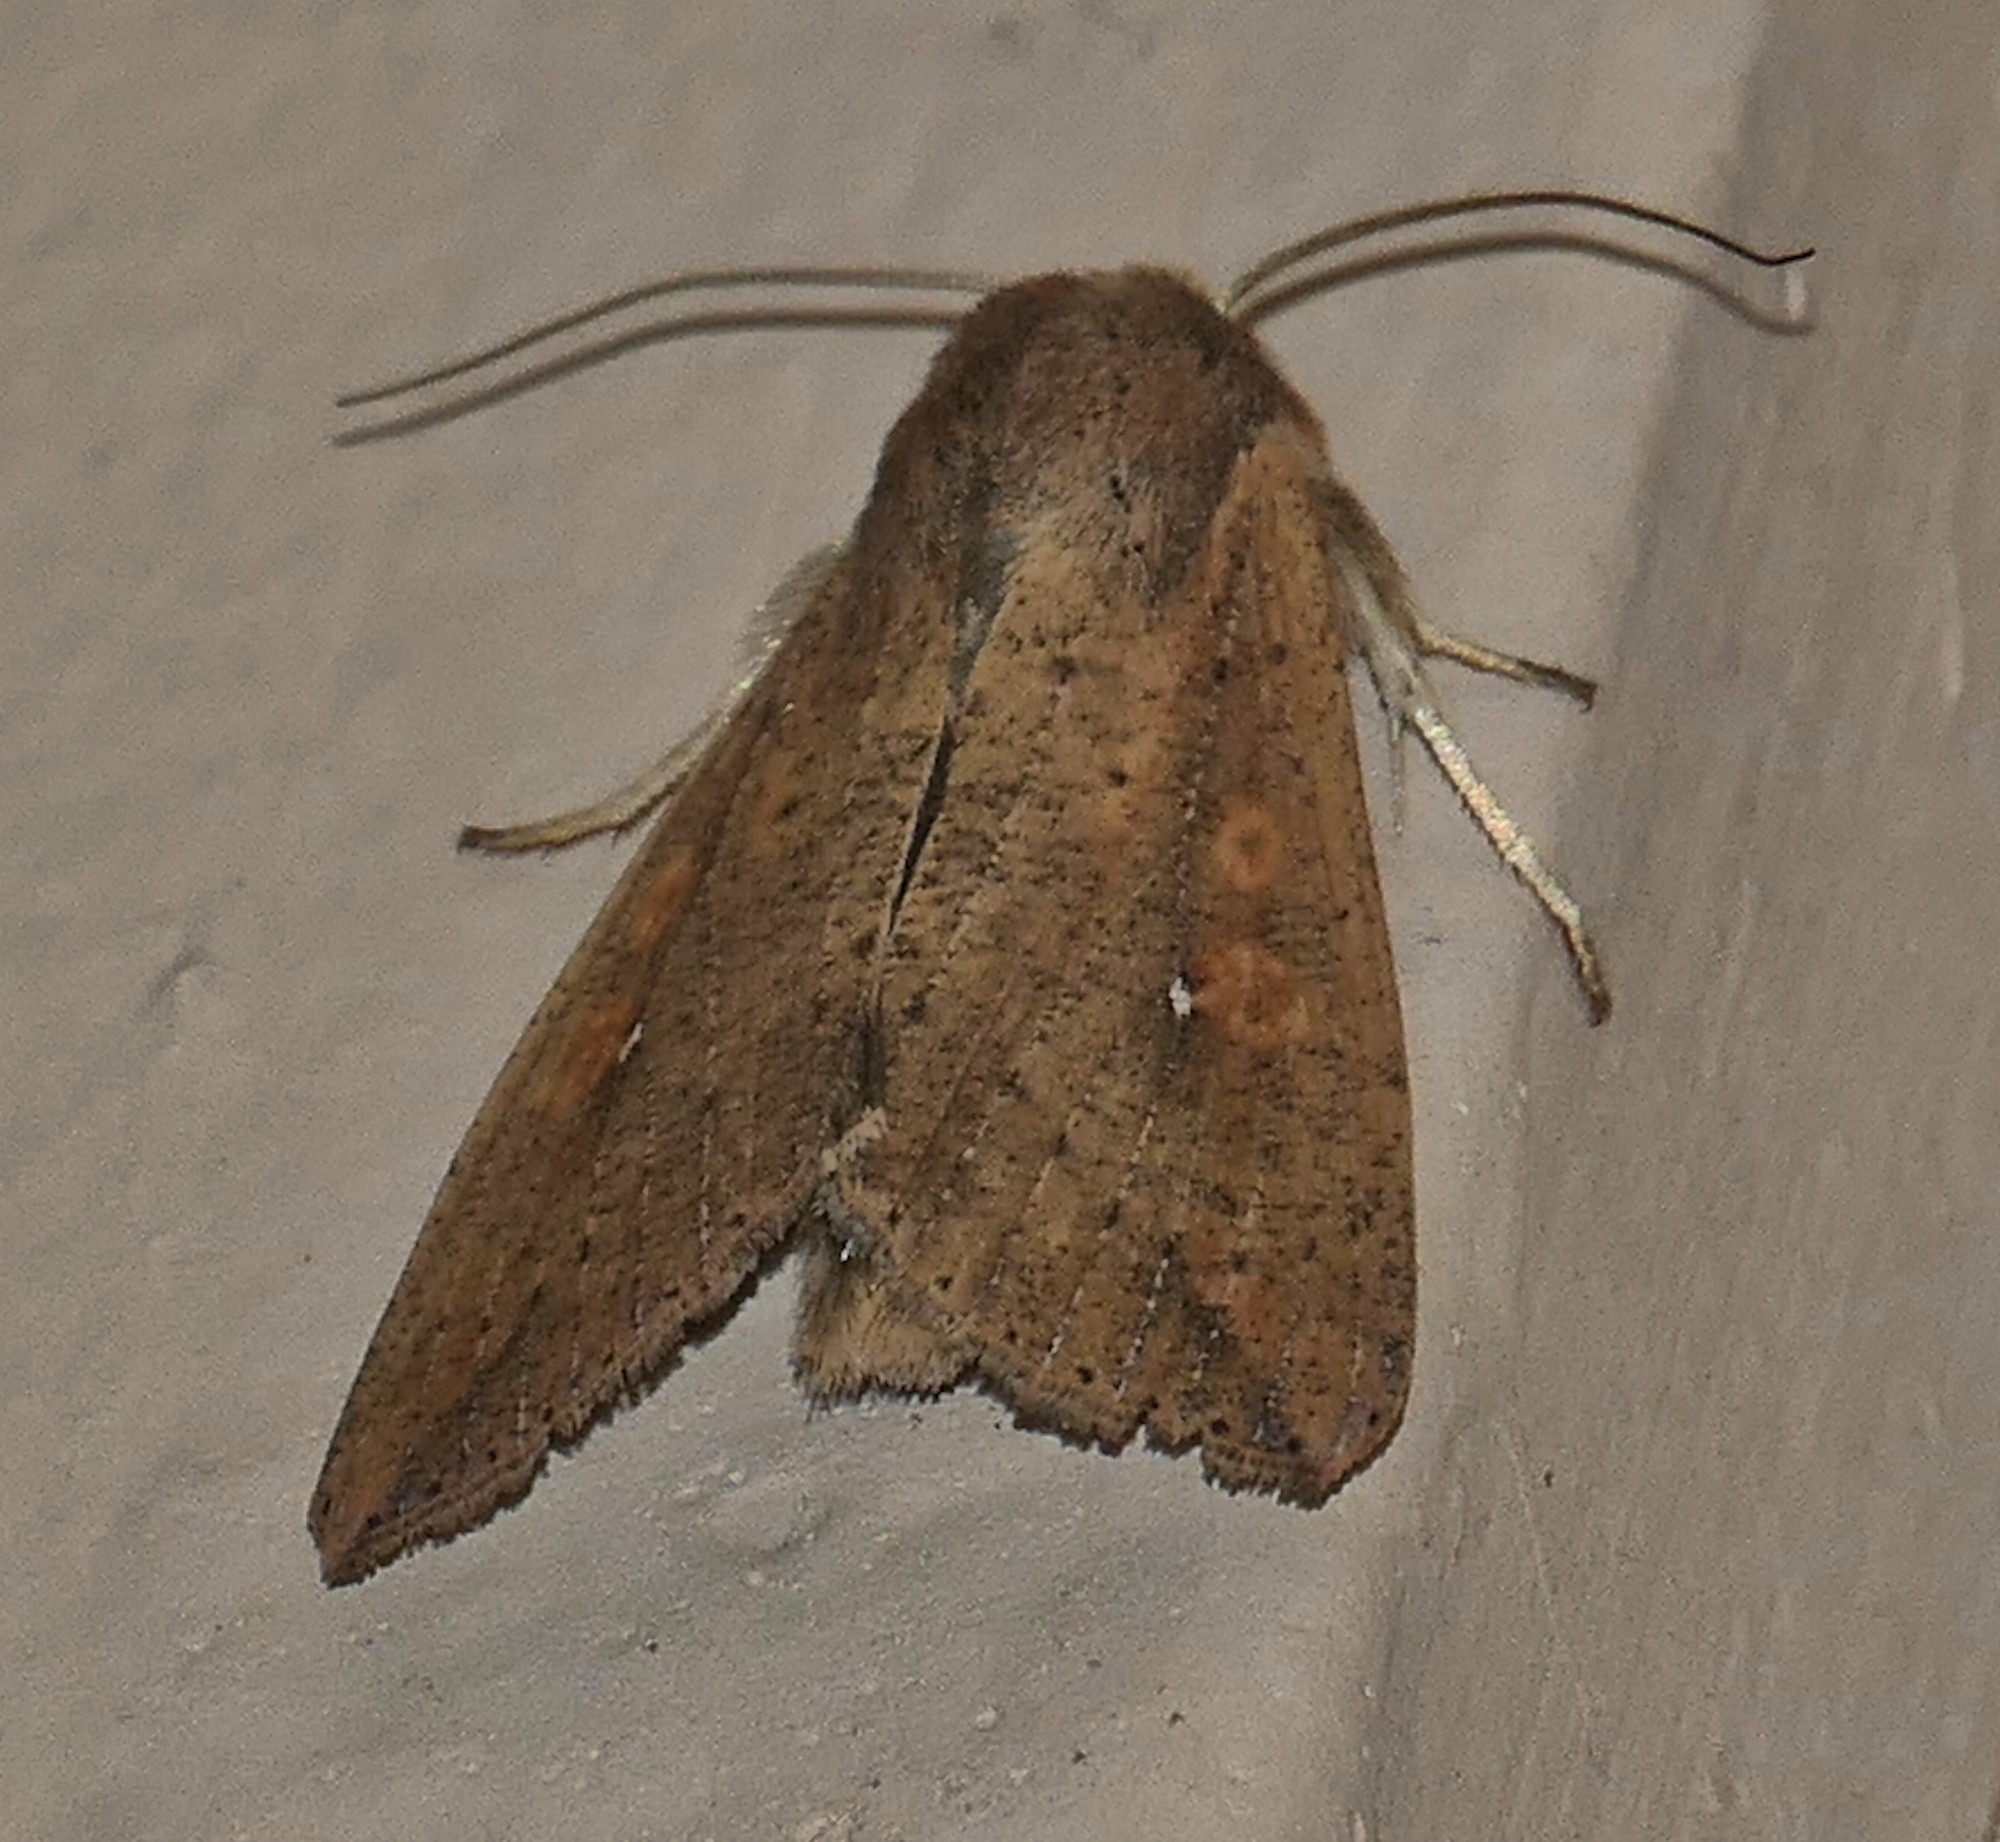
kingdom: Animalia
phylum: Arthropoda
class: Insecta
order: Lepidoptera
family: Noctuidae
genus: Mythimna
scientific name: Mythimna unipuncta
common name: White-speck
